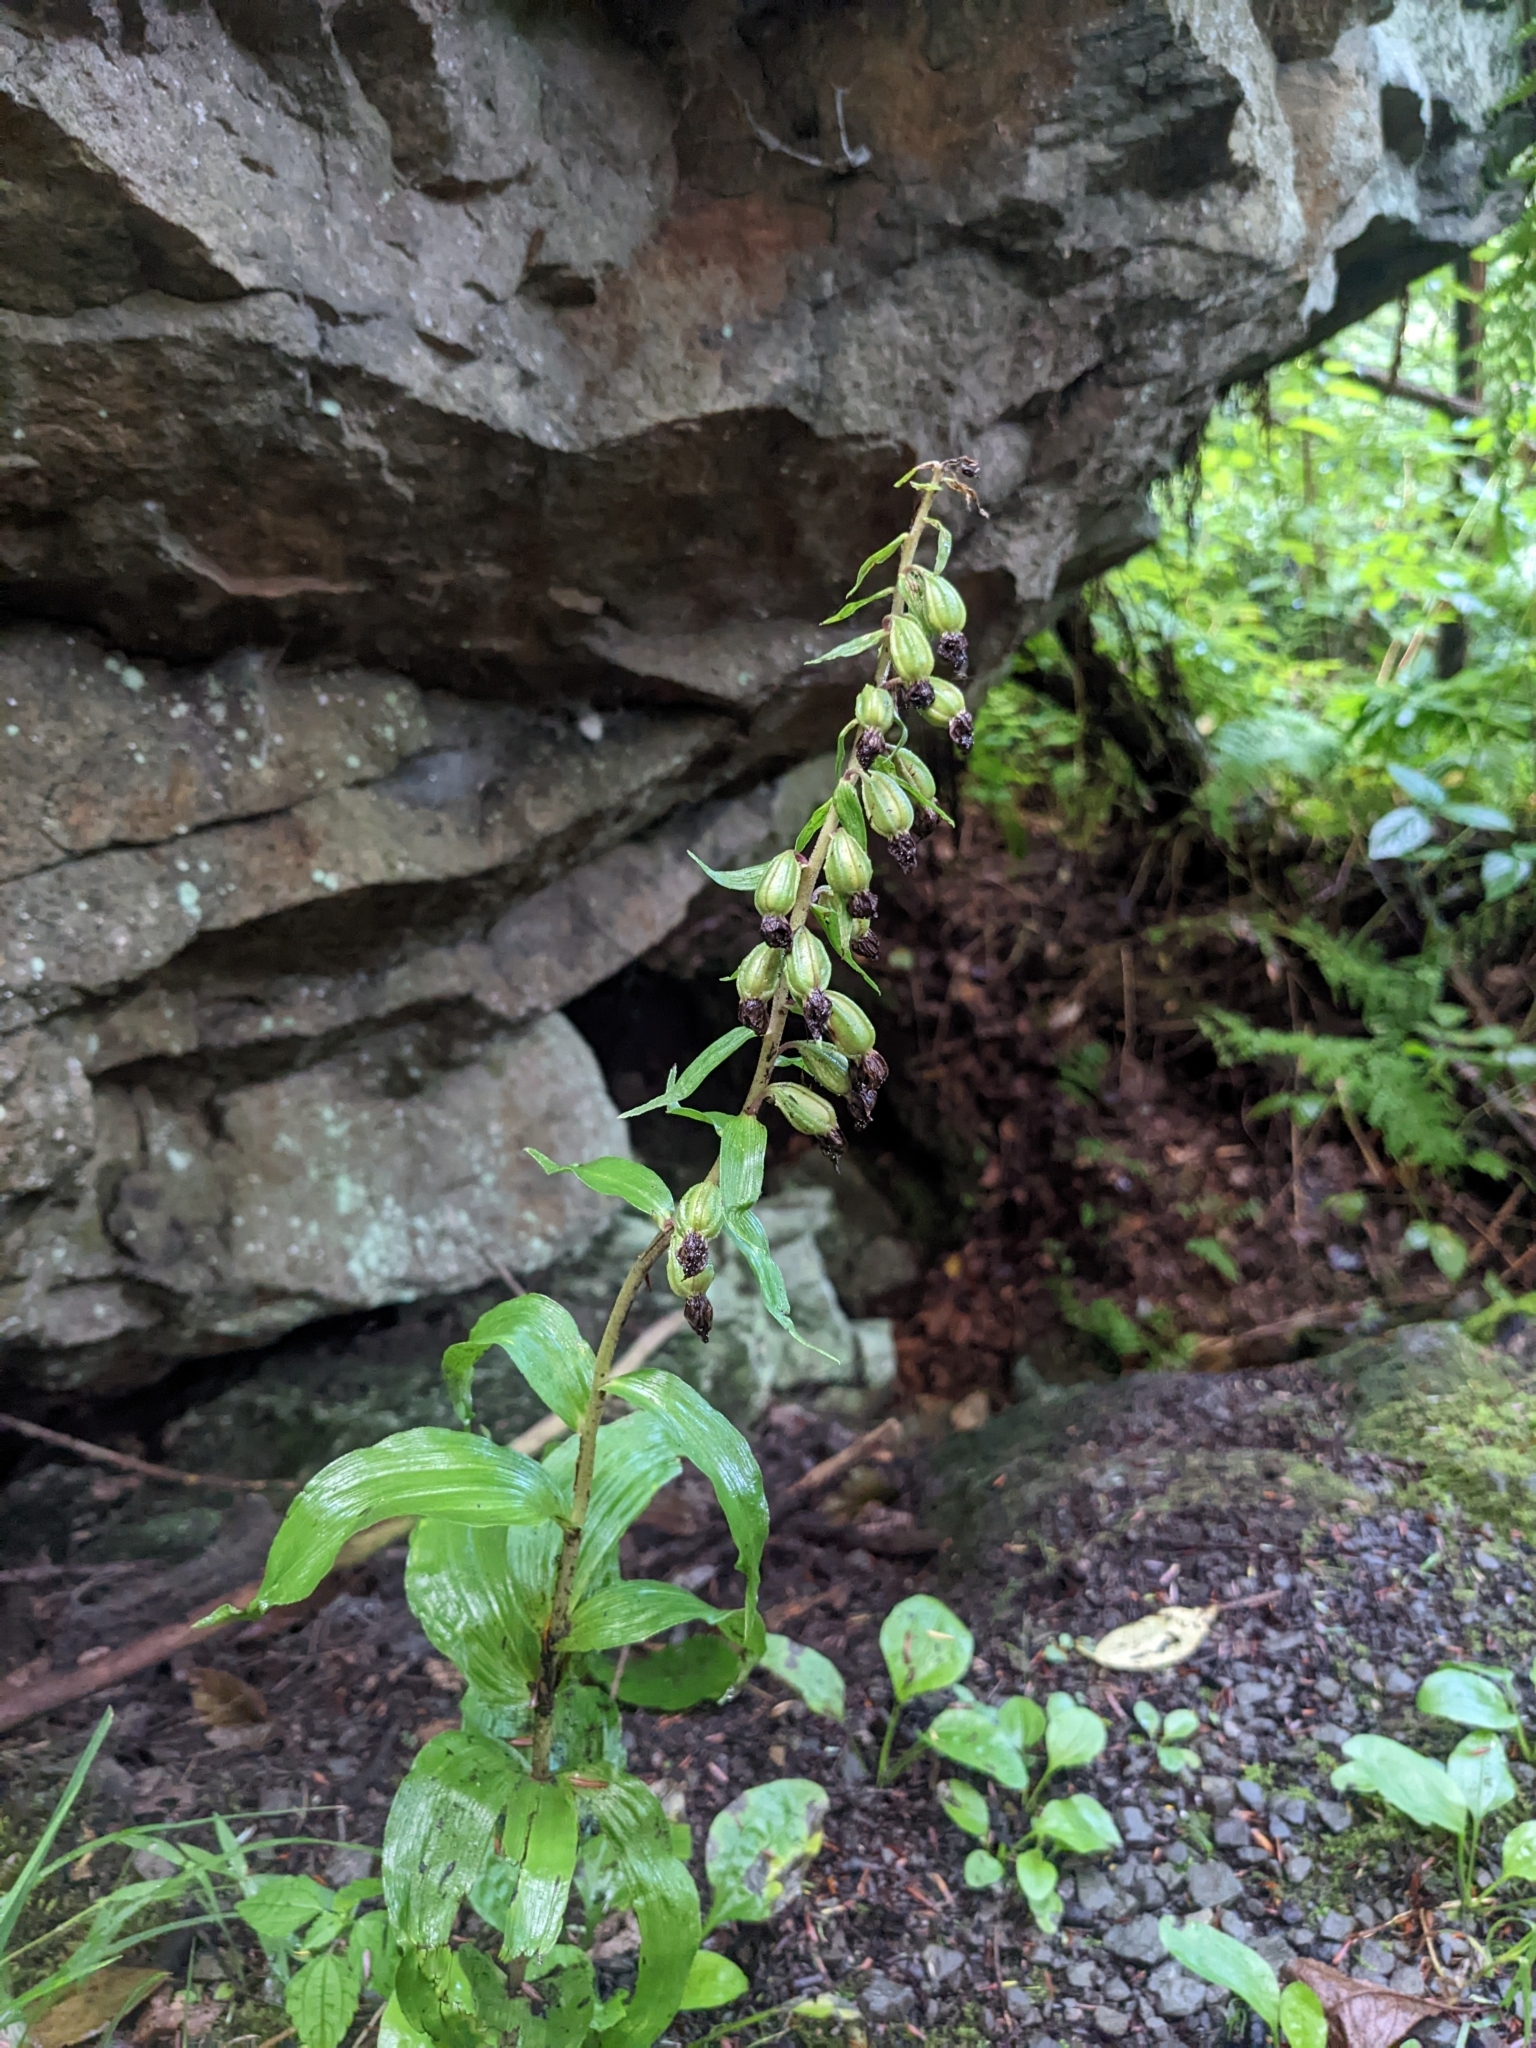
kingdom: Plantae
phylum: Tracheophyta
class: Liliopsida
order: Asparagales
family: Orchidaceae
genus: Epipactis
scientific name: Epipactis helleborine
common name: Broad-leaved helleborine
